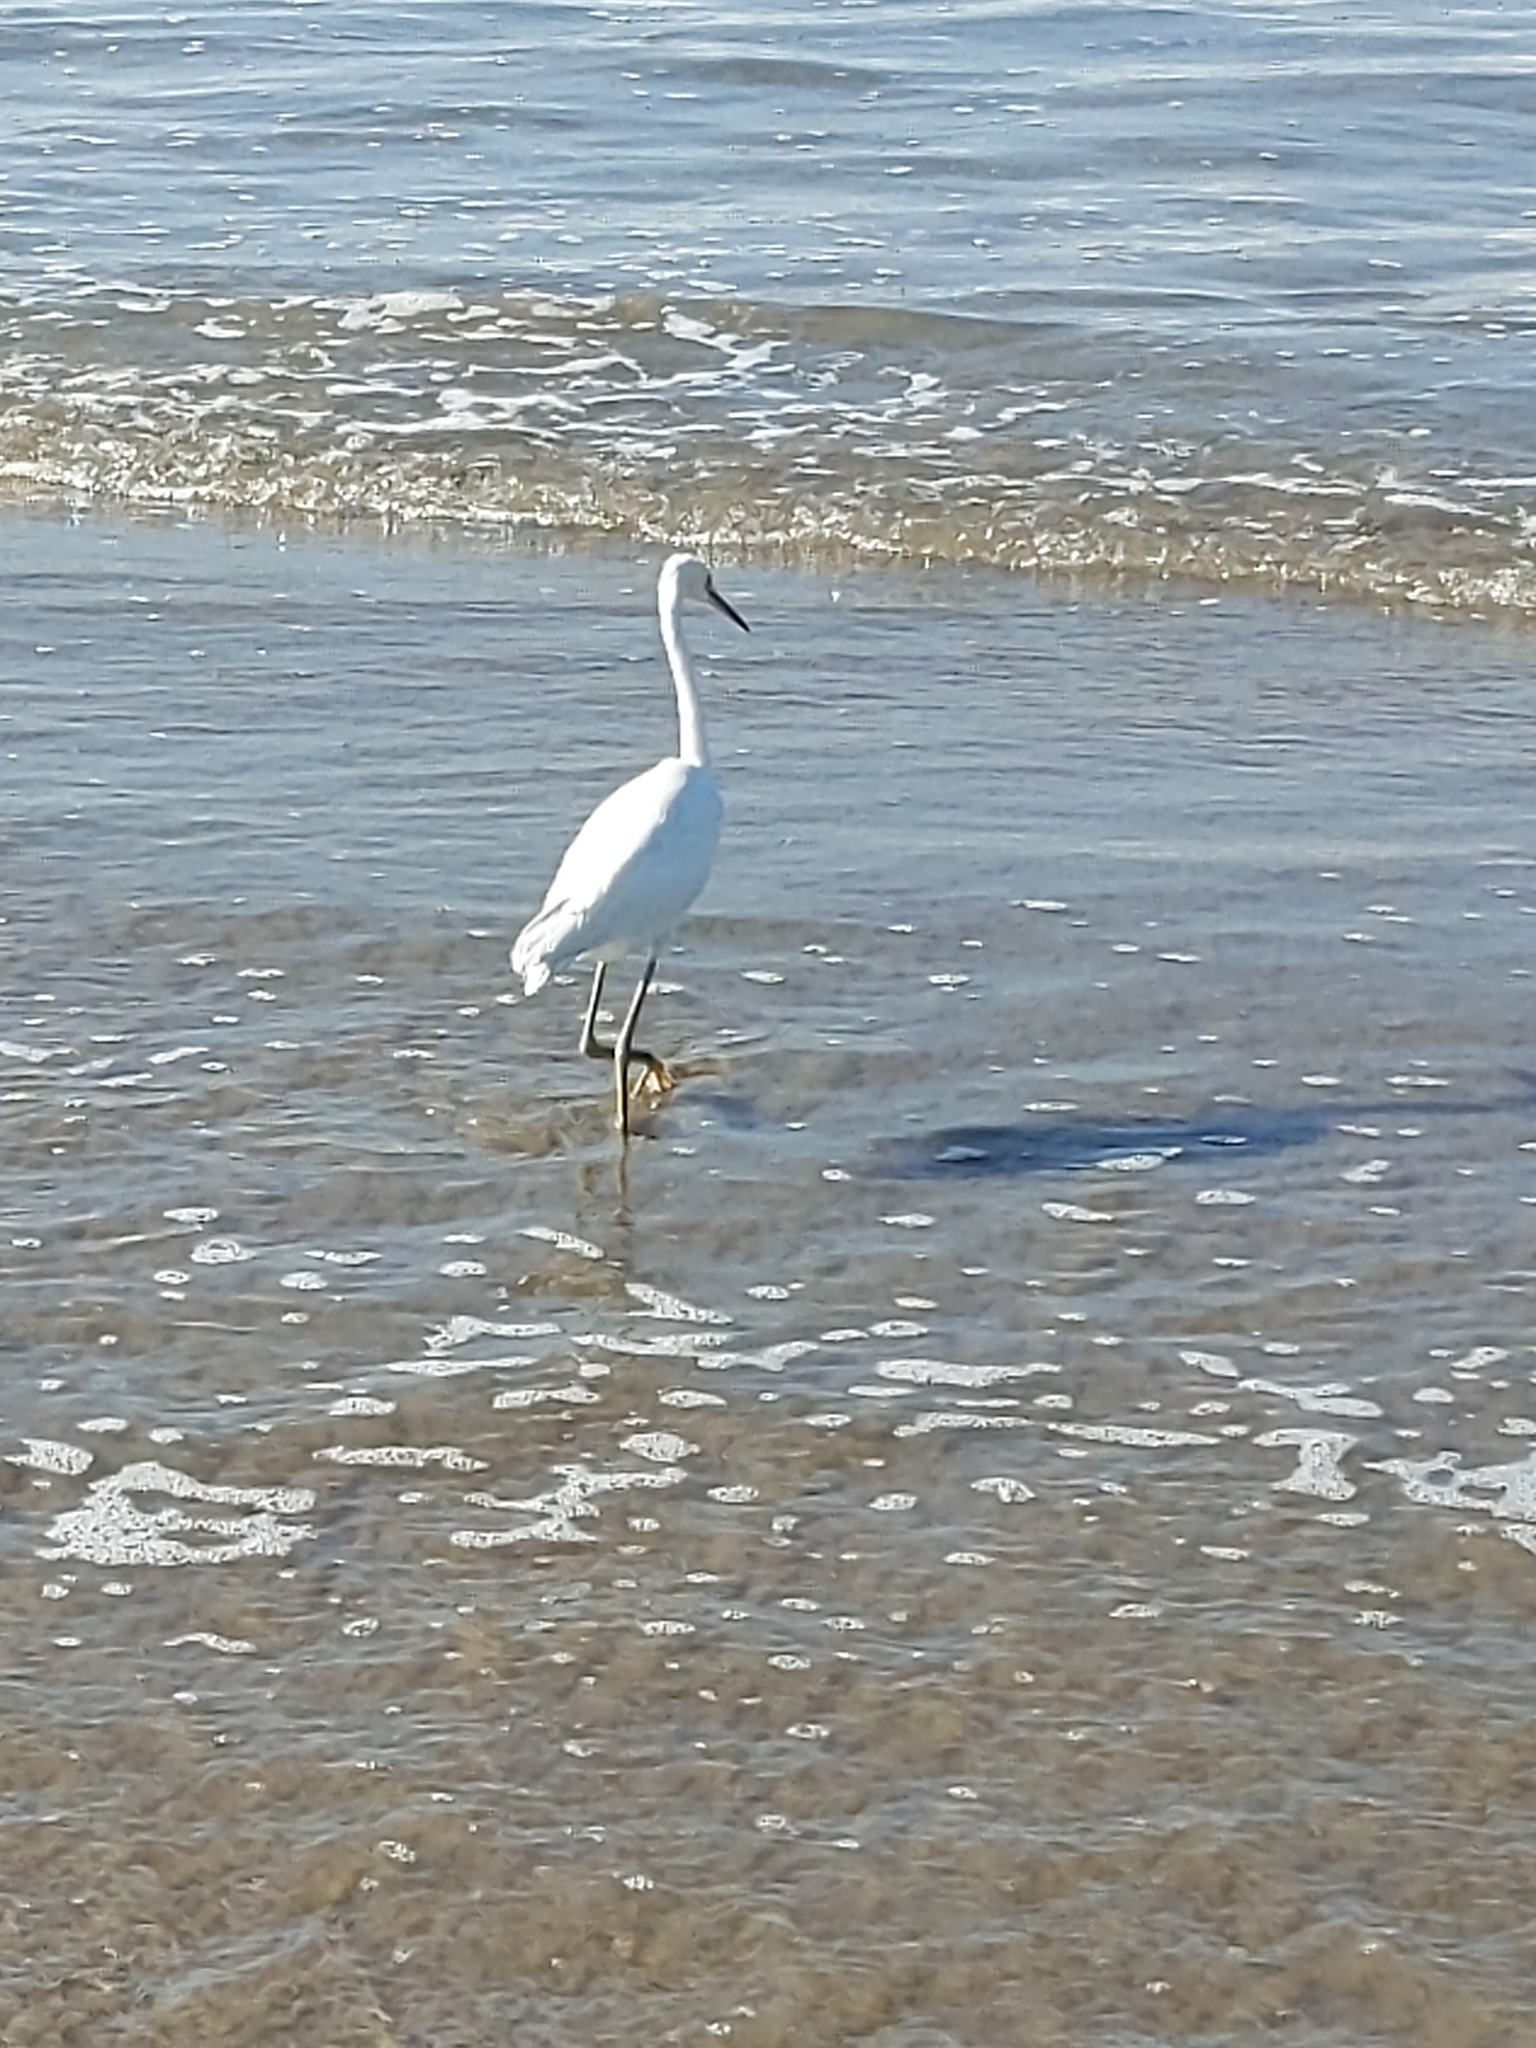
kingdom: Animalia
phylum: Chordata
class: Aves
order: Pelecaniformes
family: Ardeidae
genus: Egretta
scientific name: Egretta thula
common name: Snowy egret
